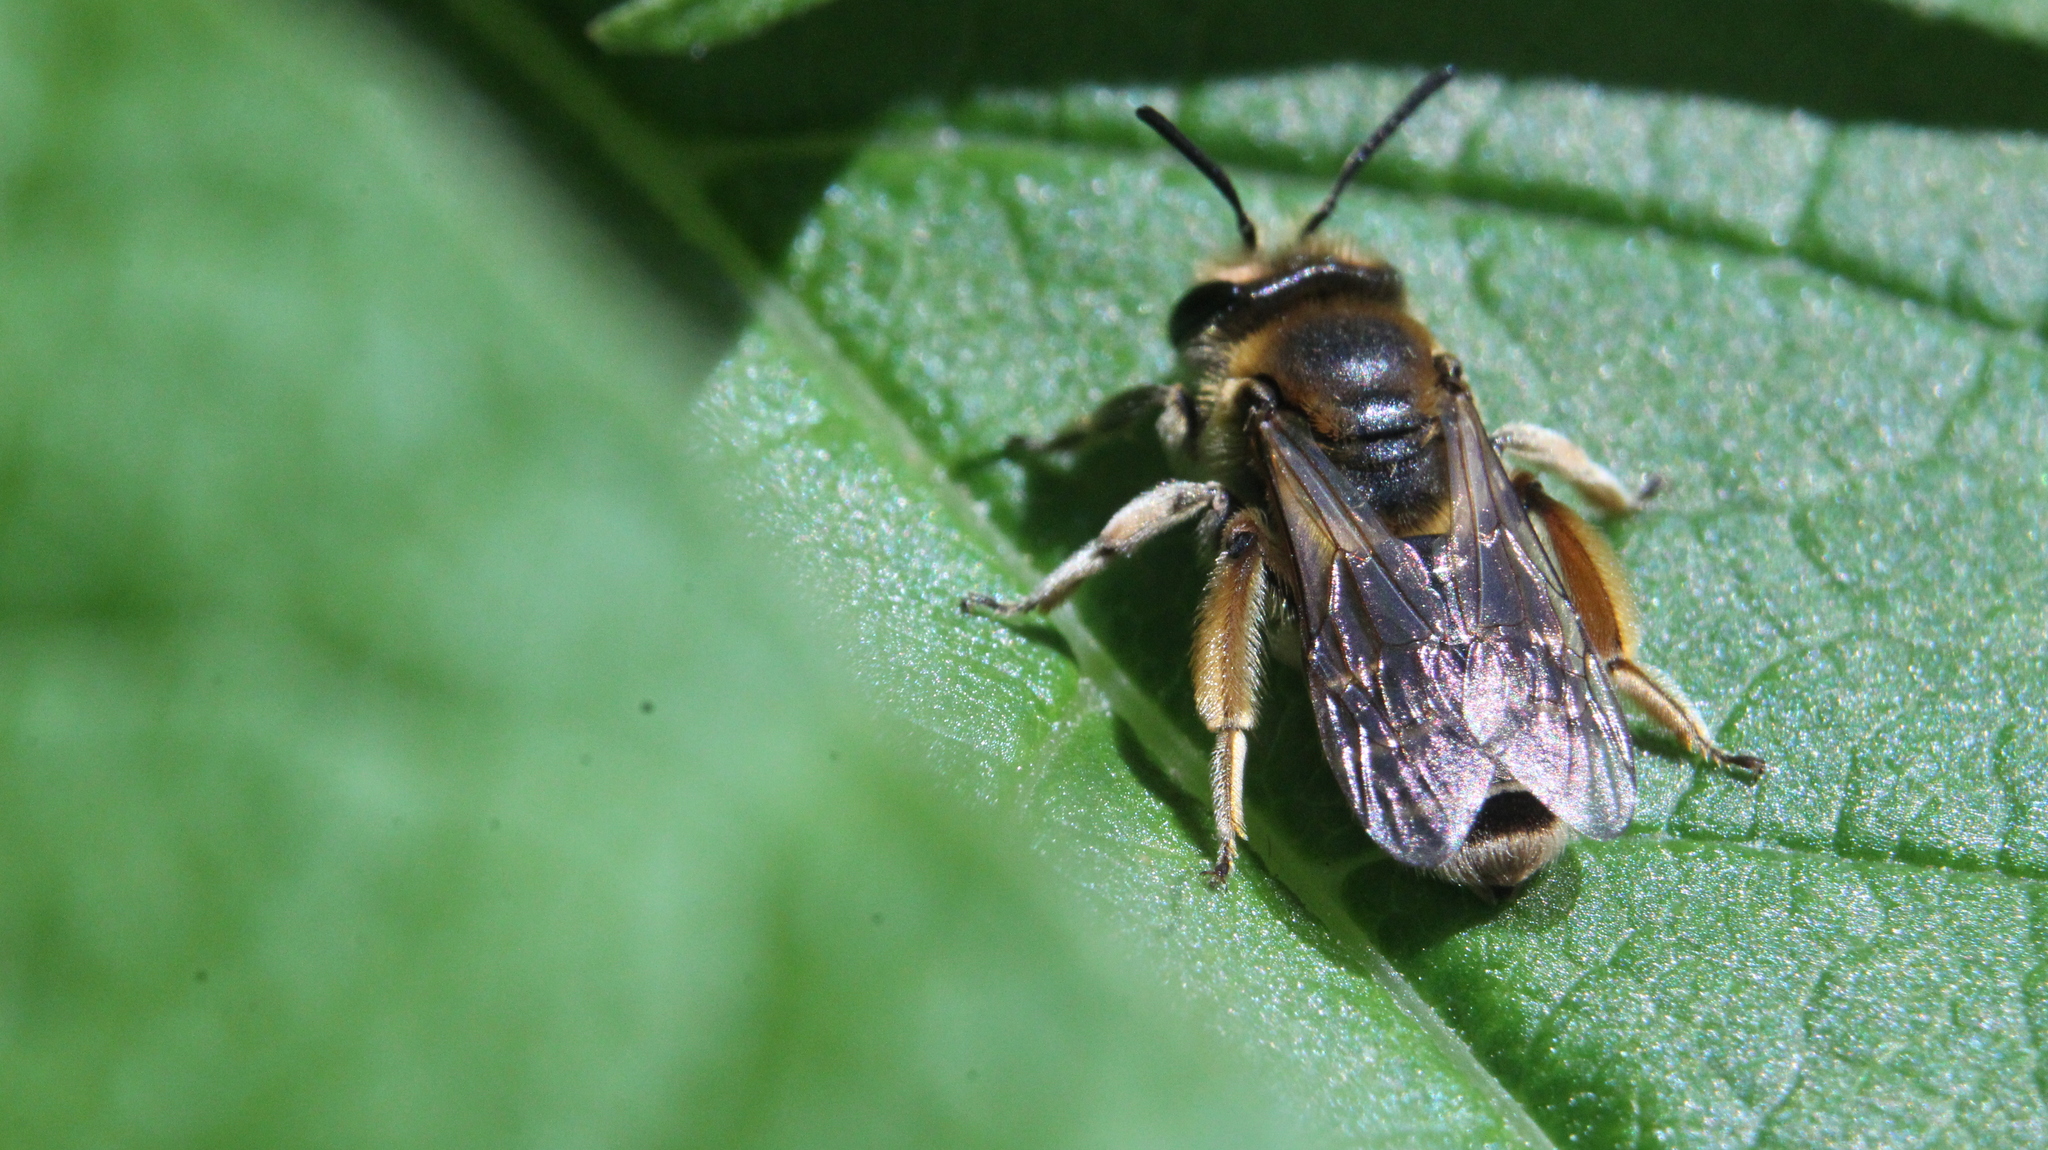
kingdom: Animalia
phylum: Arthropoda
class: Insecta
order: Hymenoptera
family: Andrenidae
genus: Andrena
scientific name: Andrena wilkella
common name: Wilke's mining bee
